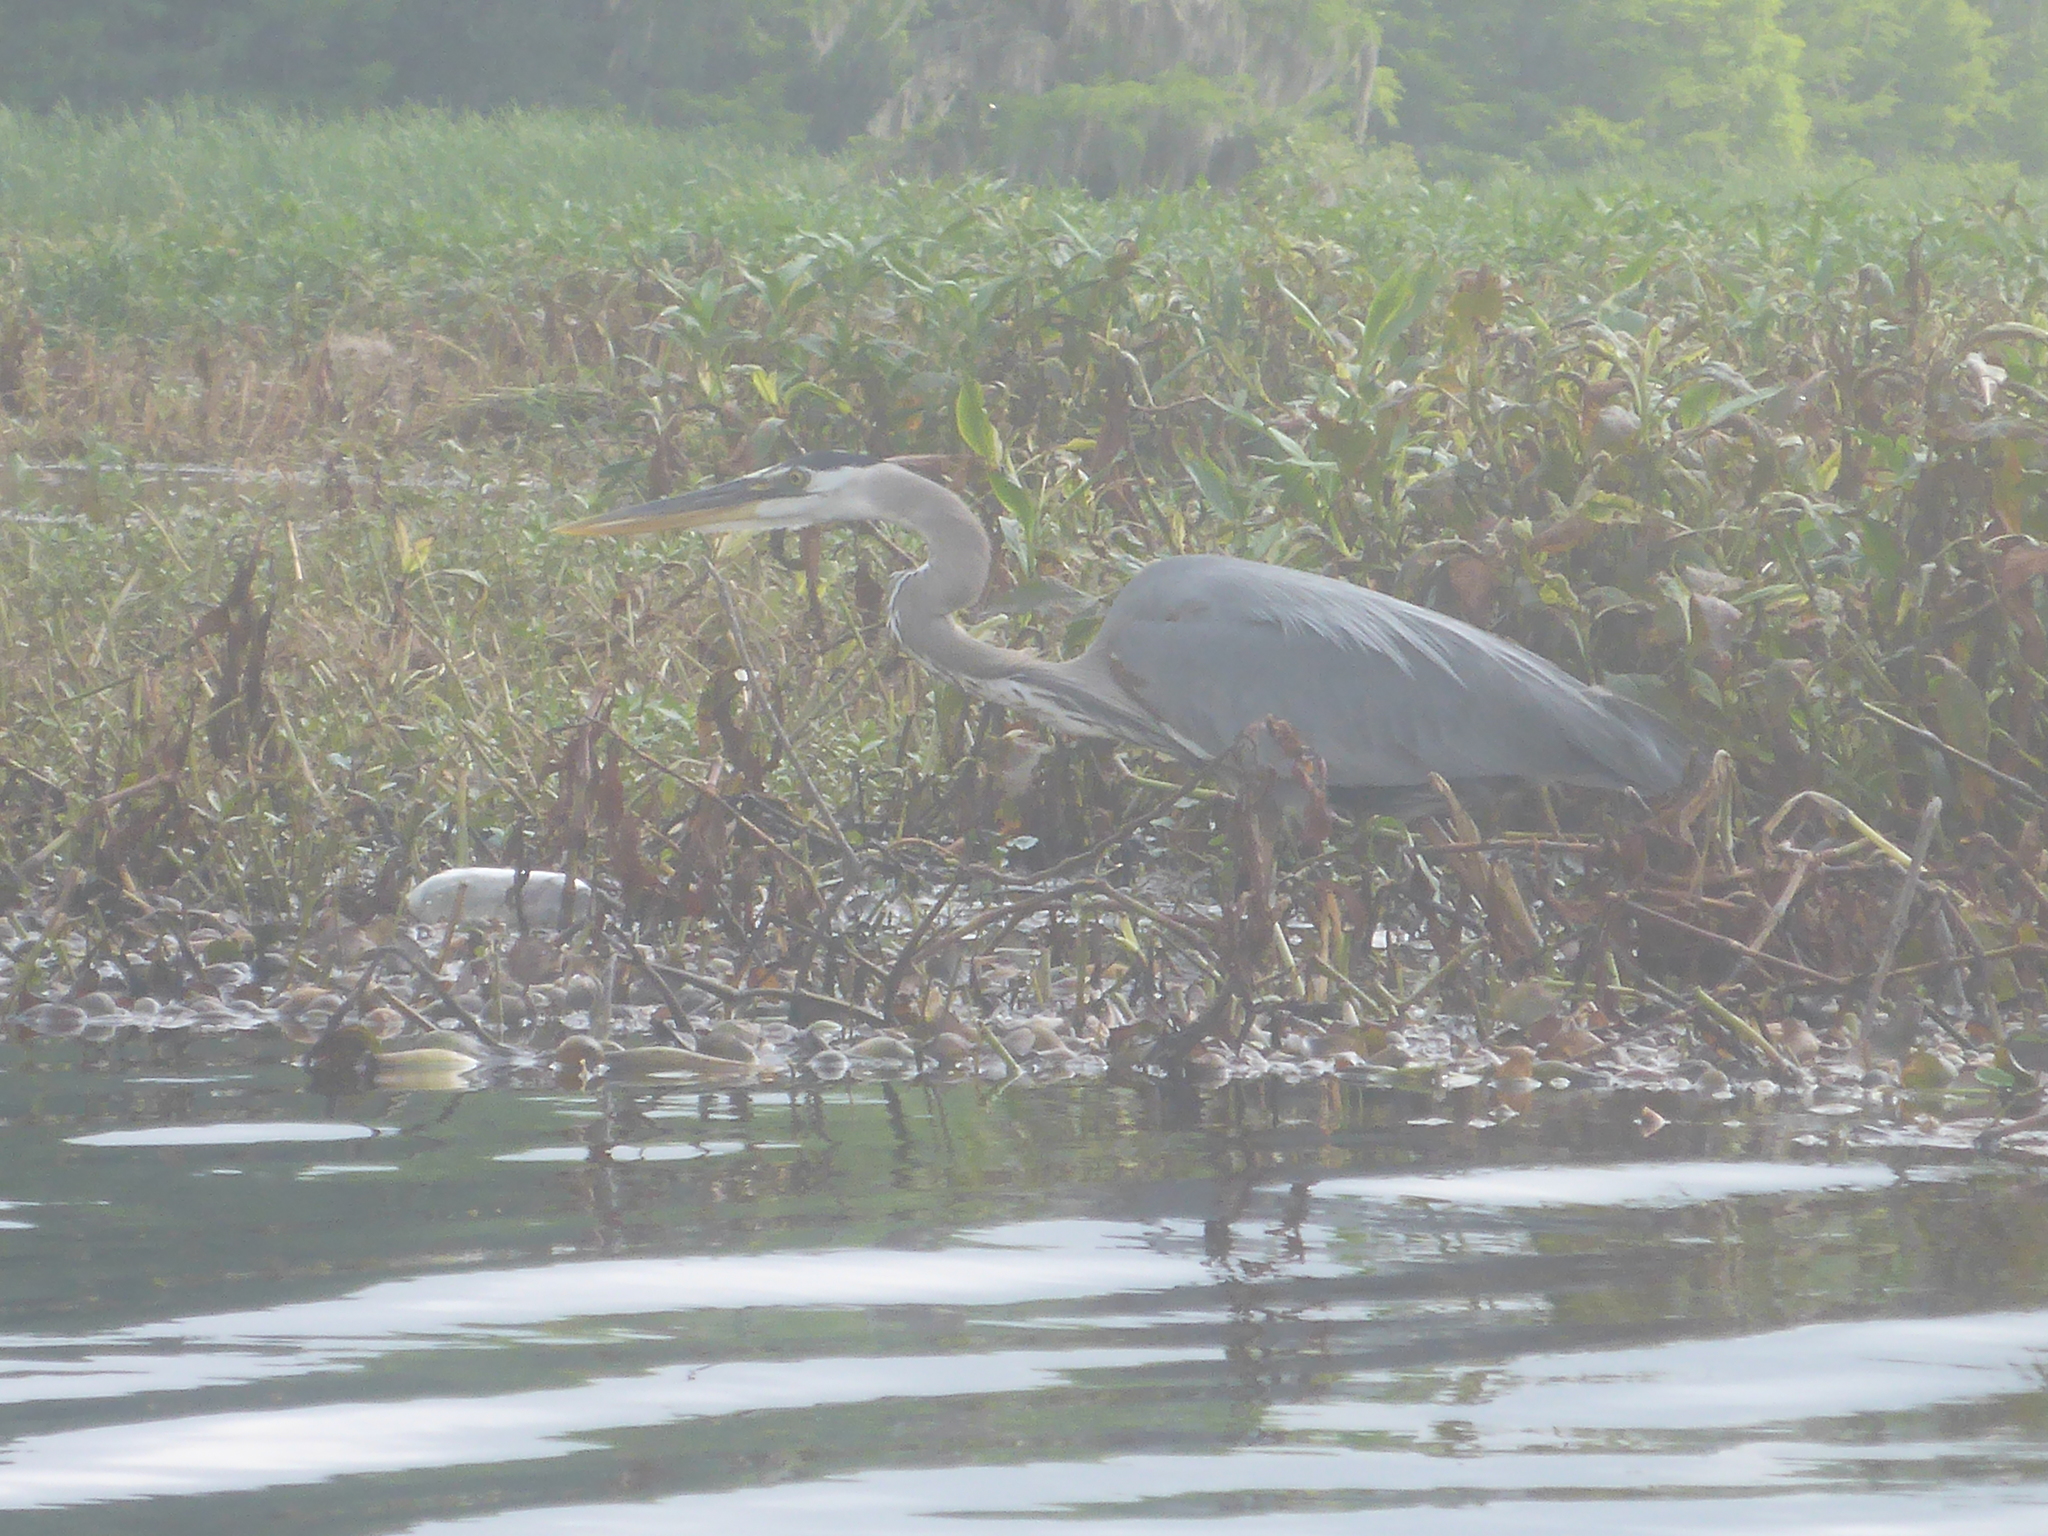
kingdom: Animalia
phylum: Chordata
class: Aves
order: Pelecaniformes
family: Ardeidae
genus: Ardea
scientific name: Ardea herodias
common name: Great blue heron
